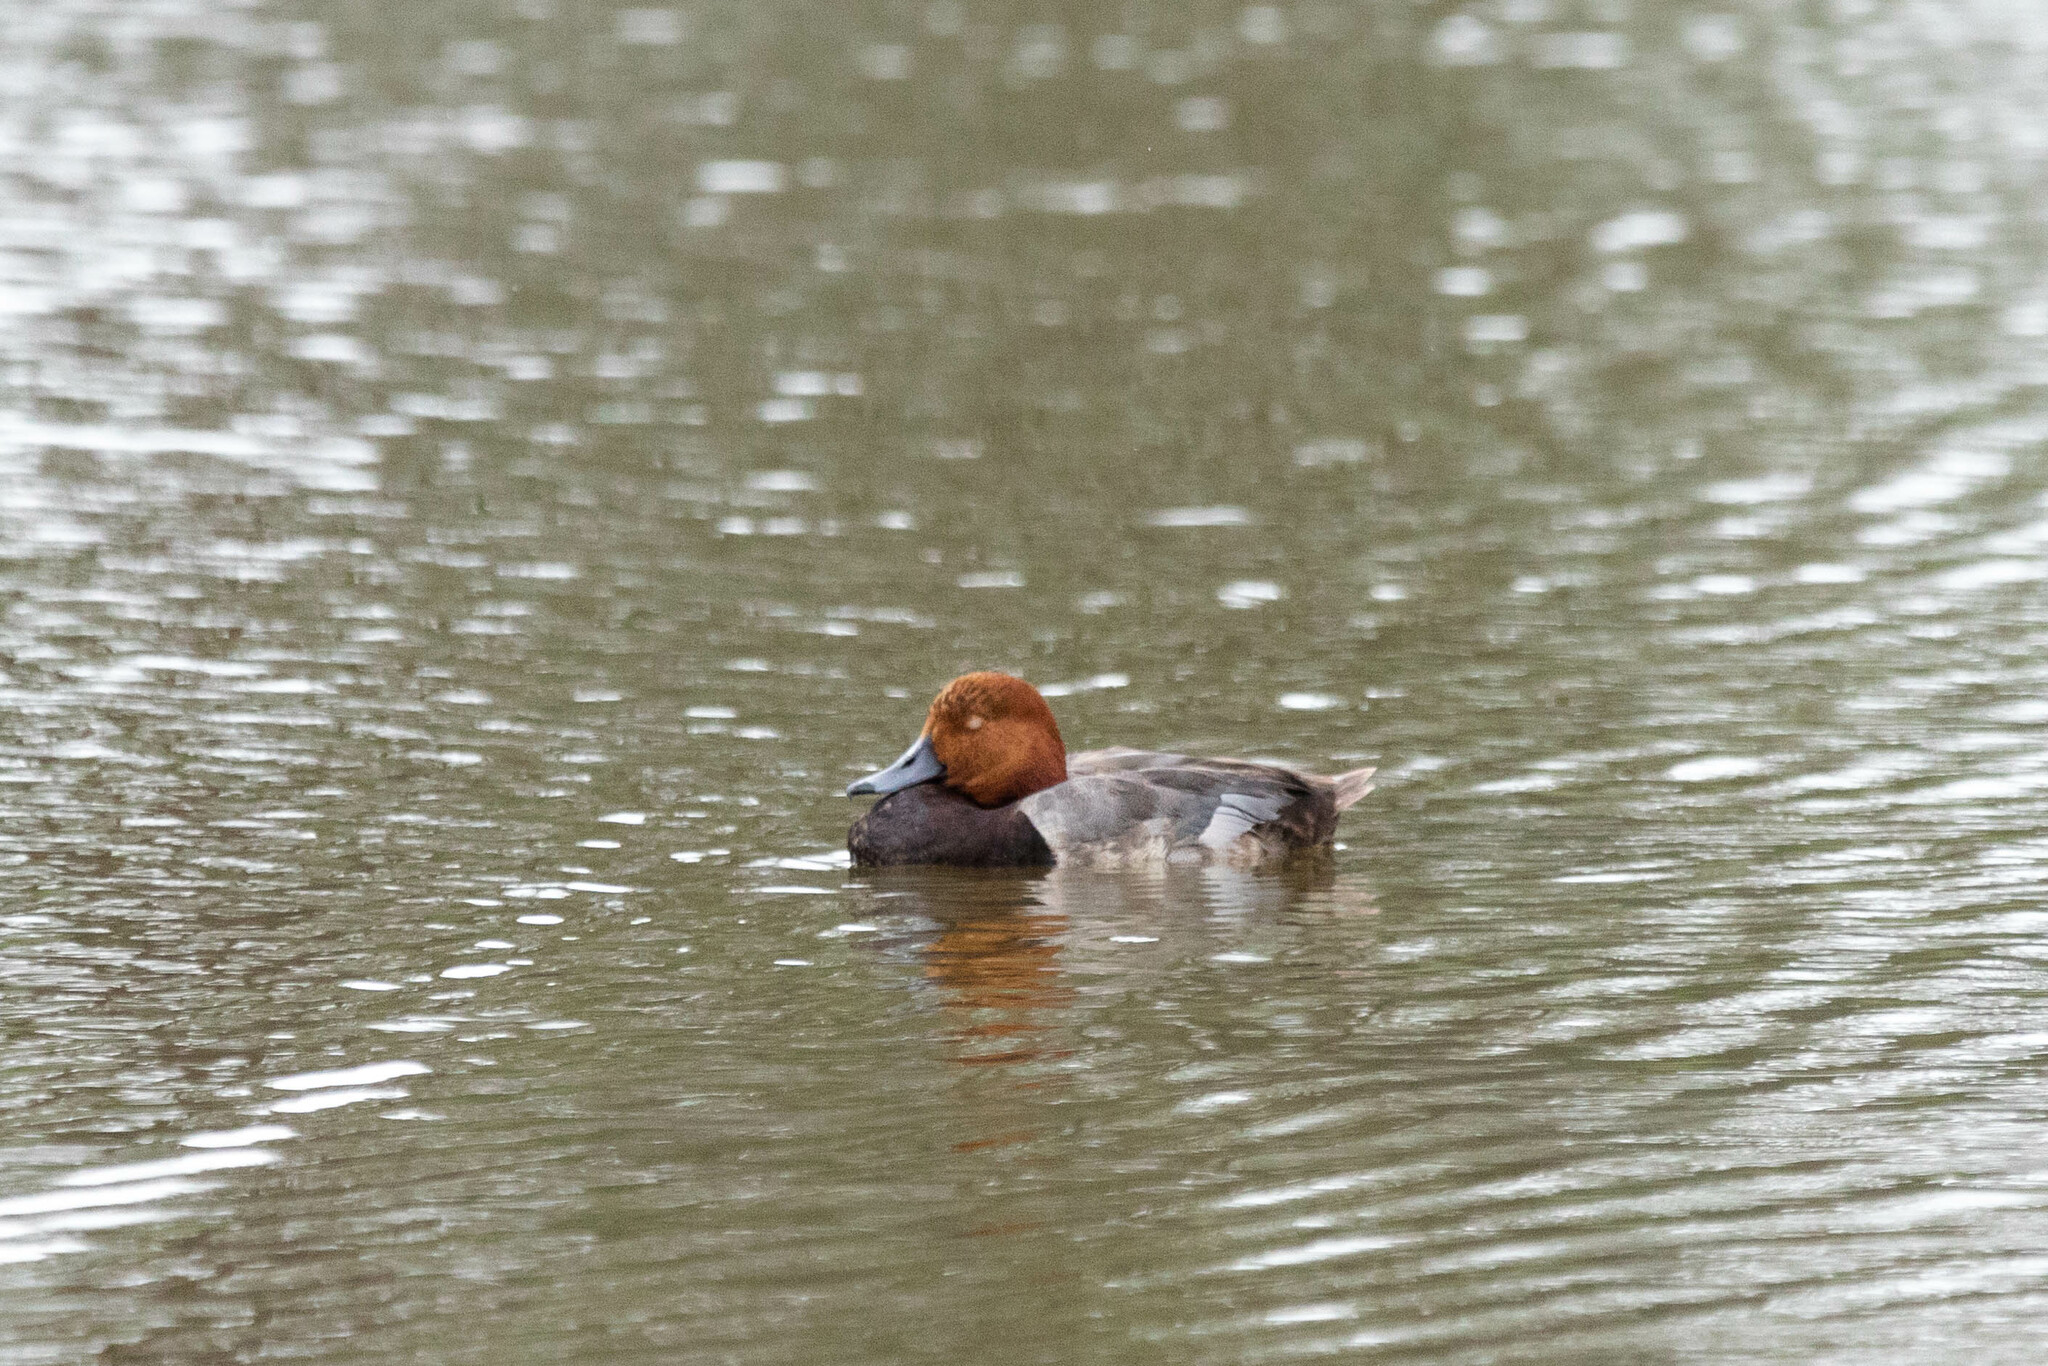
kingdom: Animalia
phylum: Chordata
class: Aves
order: Anseriformes
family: Anatidae
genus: Aythya
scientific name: Aythya americana
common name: Redhead
